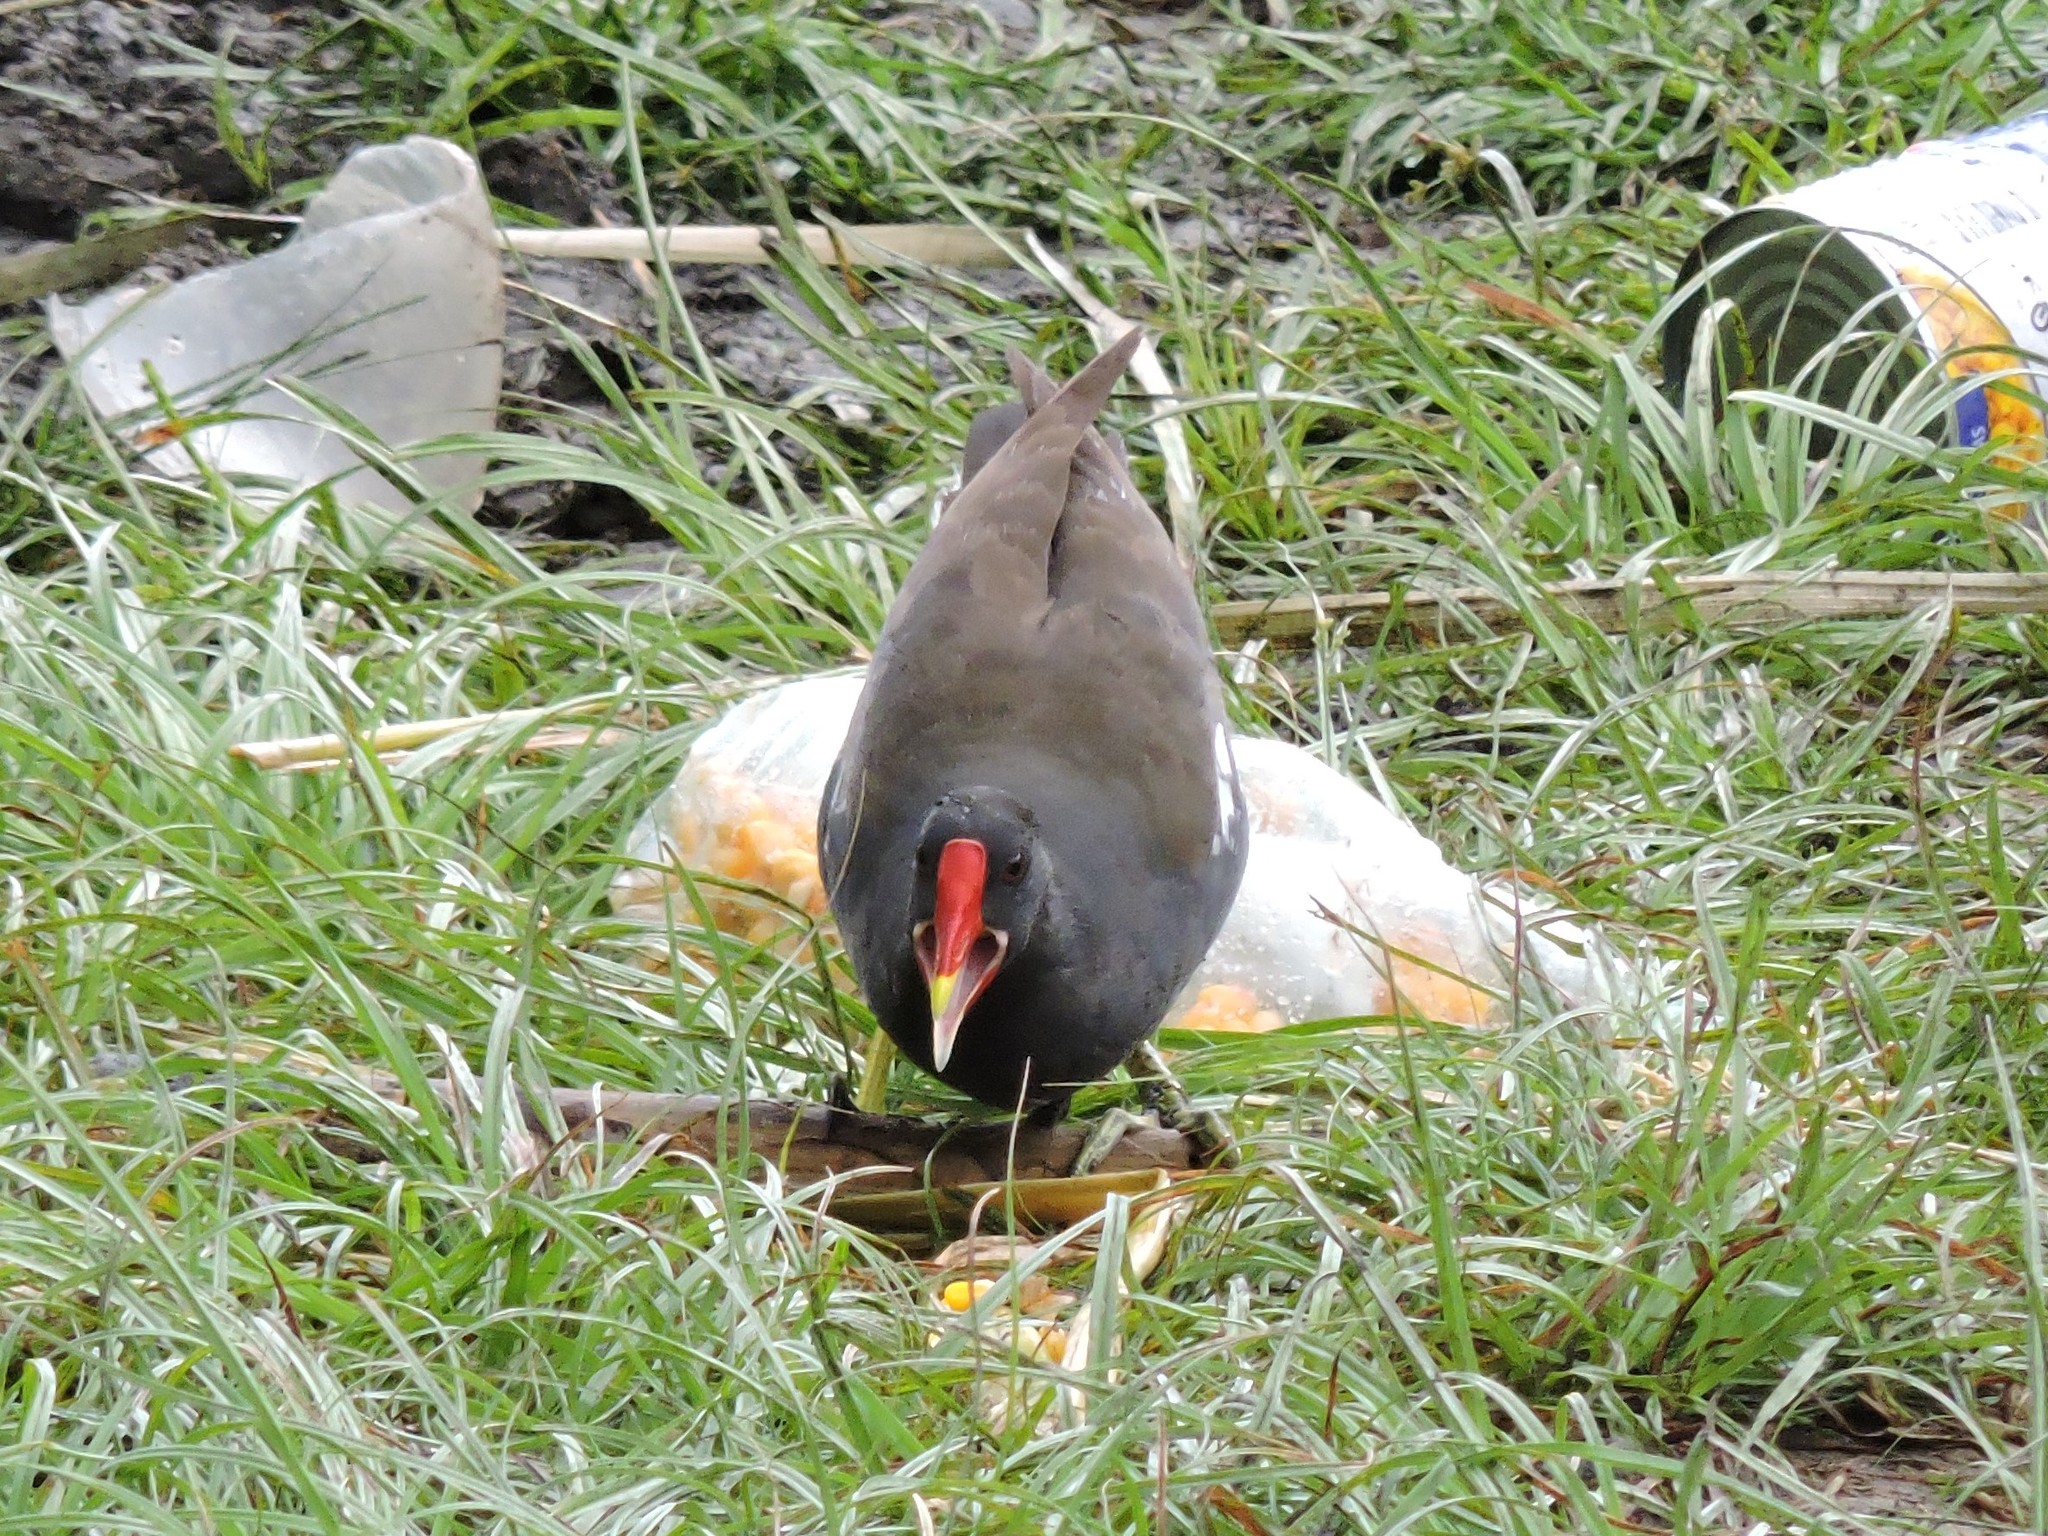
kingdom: Animalia
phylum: Chordata
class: Aves
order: Gruiformes
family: Rallidae
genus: Gallinula
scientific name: Gallinula chloropus
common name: Common moorhen
